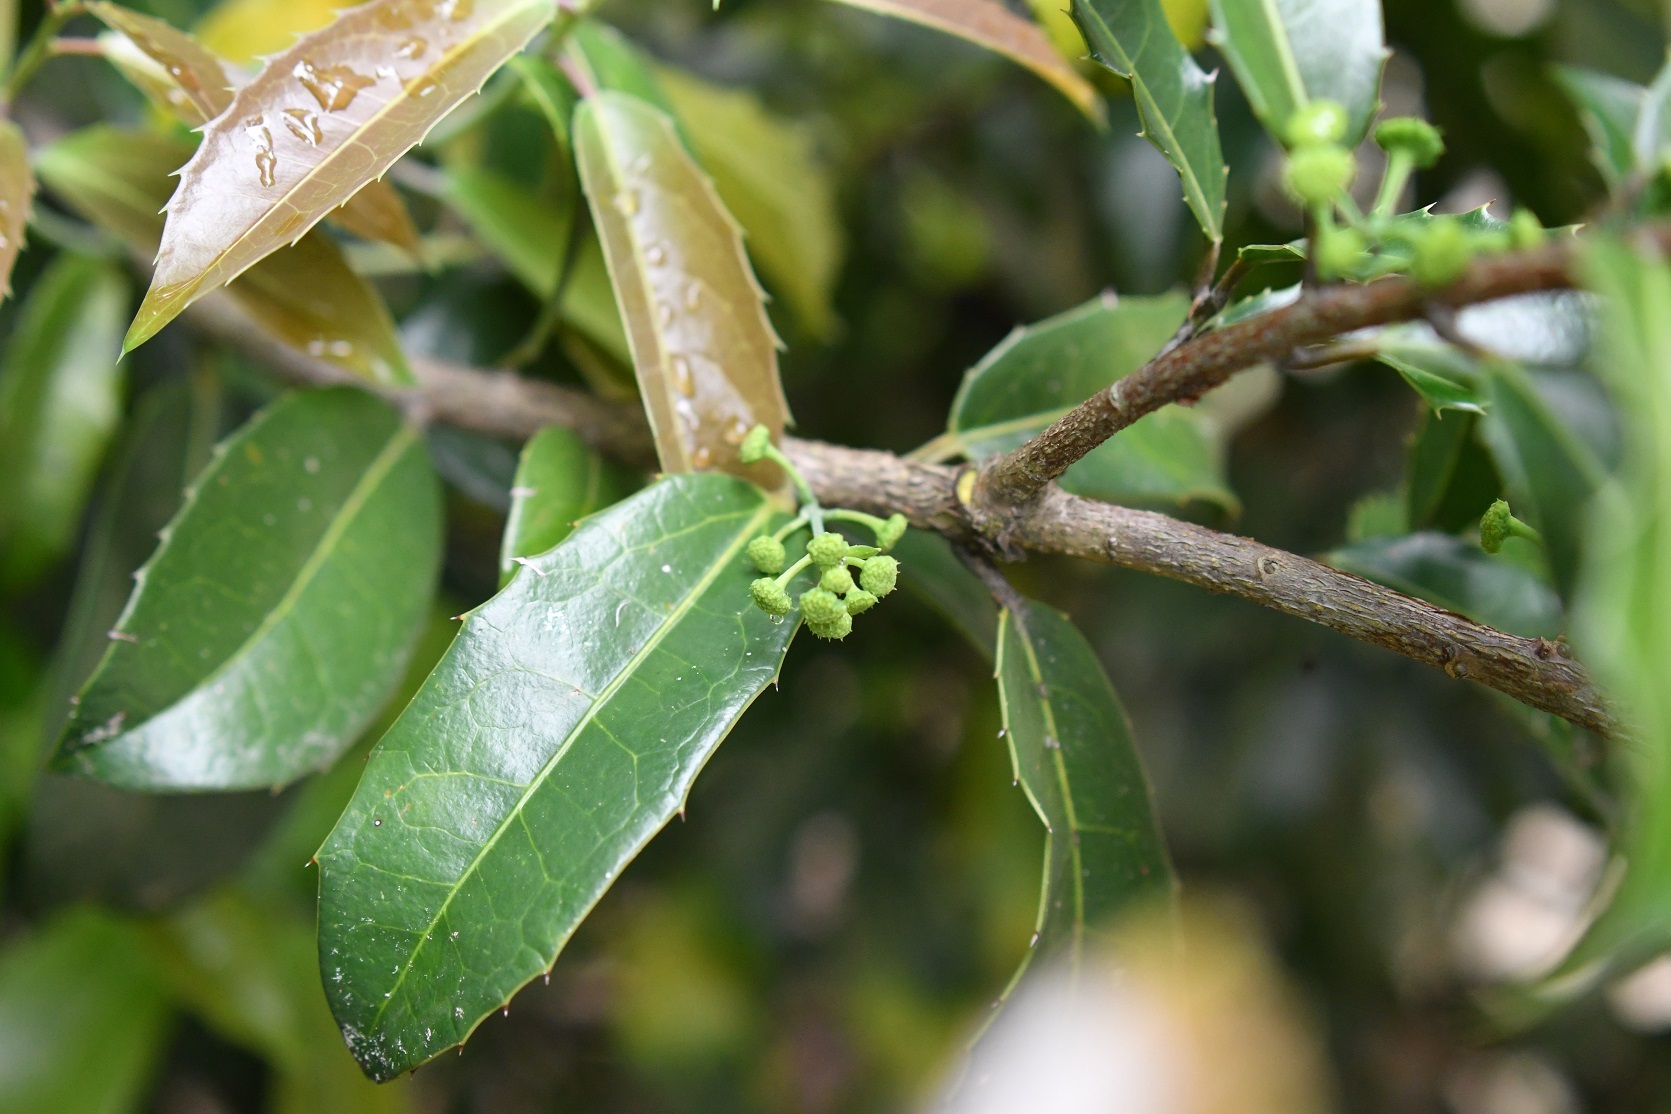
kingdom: Plantae
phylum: Tracheophyta
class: Magnoliopsida
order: Malpighiales
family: Salicaceae
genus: Olmediella
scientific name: Olmediella betschleriana
